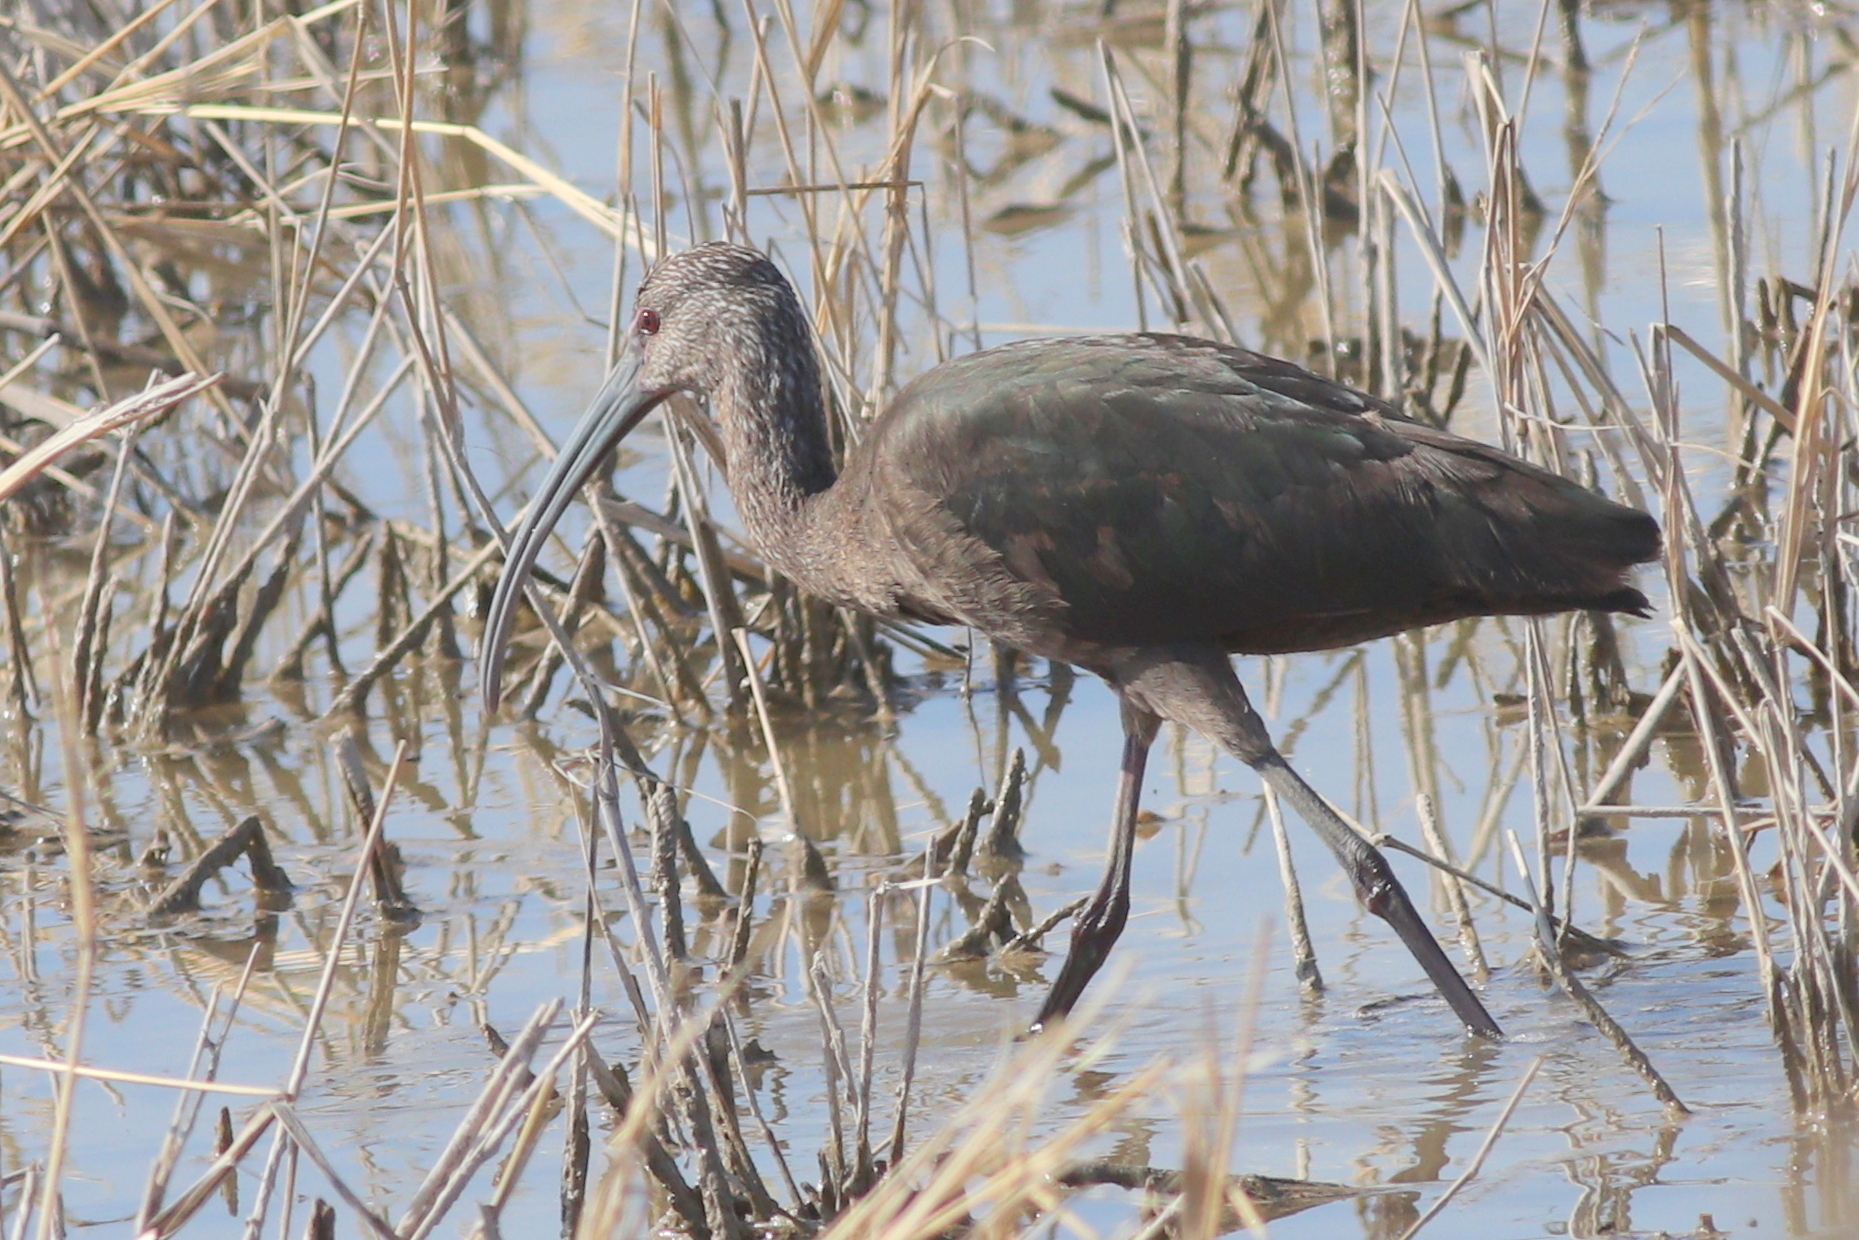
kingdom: Animalia
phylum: Chordata
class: Aves
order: Pelecaniformes
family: Threskiornithidae
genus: Plegadis
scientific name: Plegadis chihi
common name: White-faced ibis
